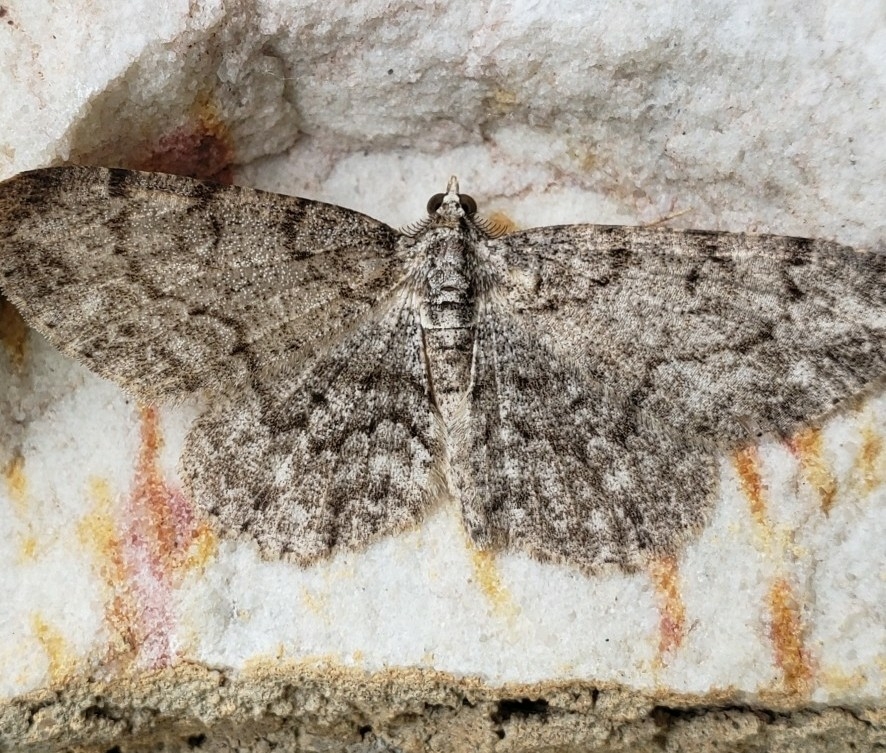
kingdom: Animalia
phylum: Arthropoda
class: Insecta
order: Lepidoptera
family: Geometridae
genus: Protoboarmia
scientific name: Protoboarmia porcelaria
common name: Porcelain gray
